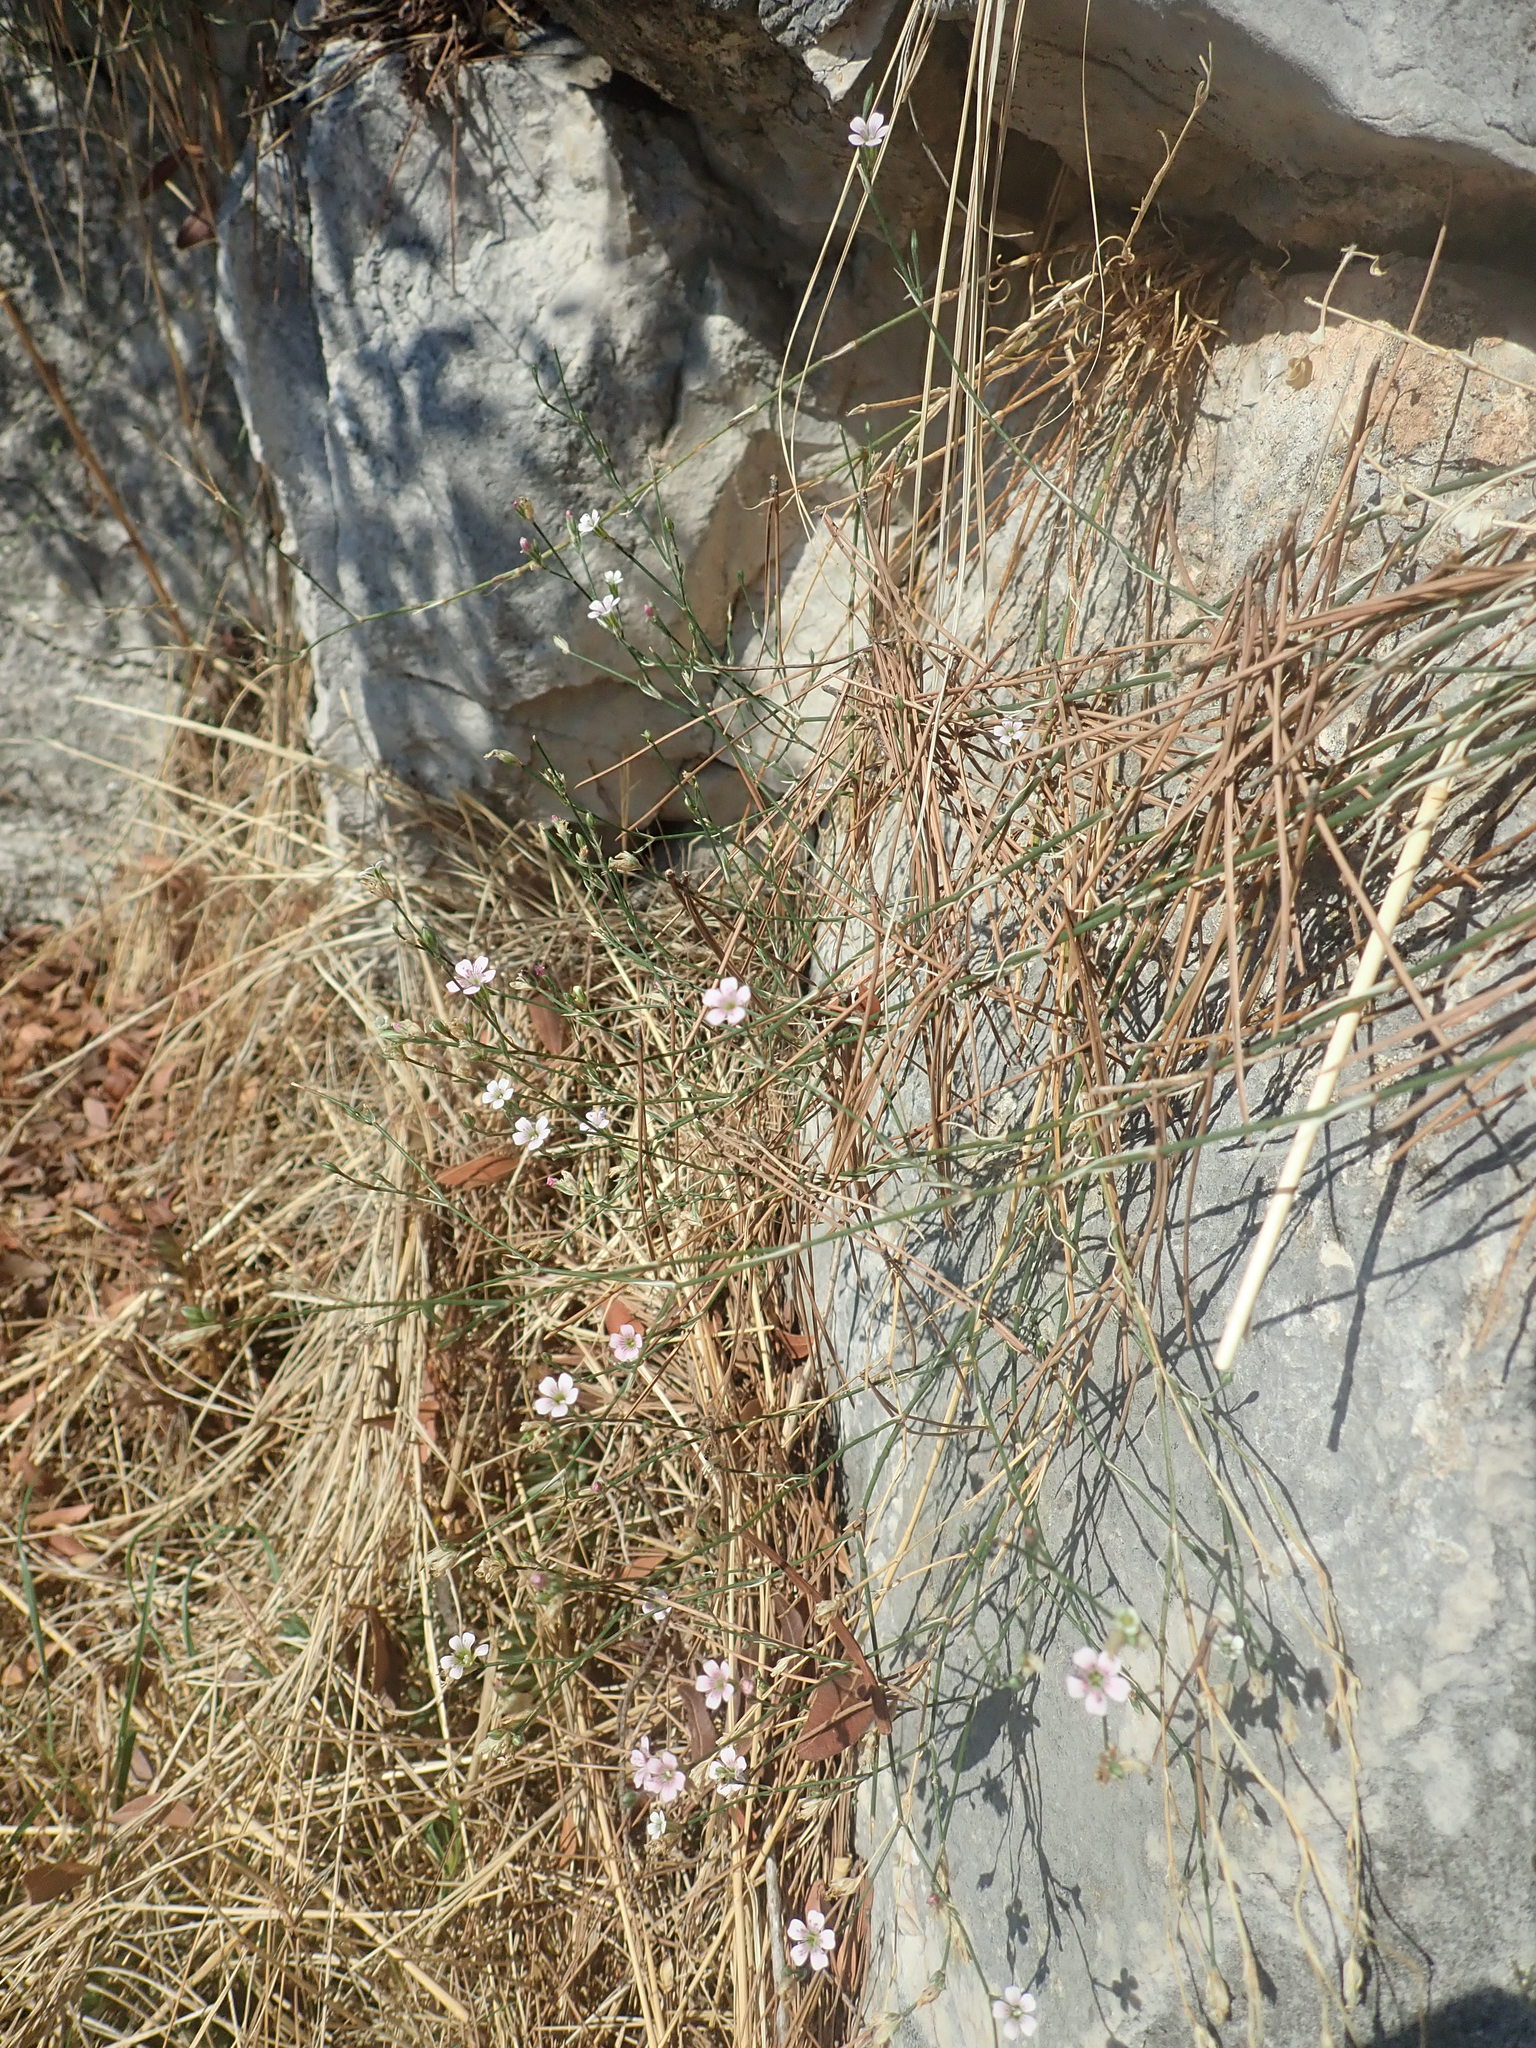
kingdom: Plantae
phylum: Tracheophyta
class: Magnoliopsida
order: Caryophyllales
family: Caryophyllaceae
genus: Petrorhagia
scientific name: Petrorhagia saxifraga
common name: Tunicflower
